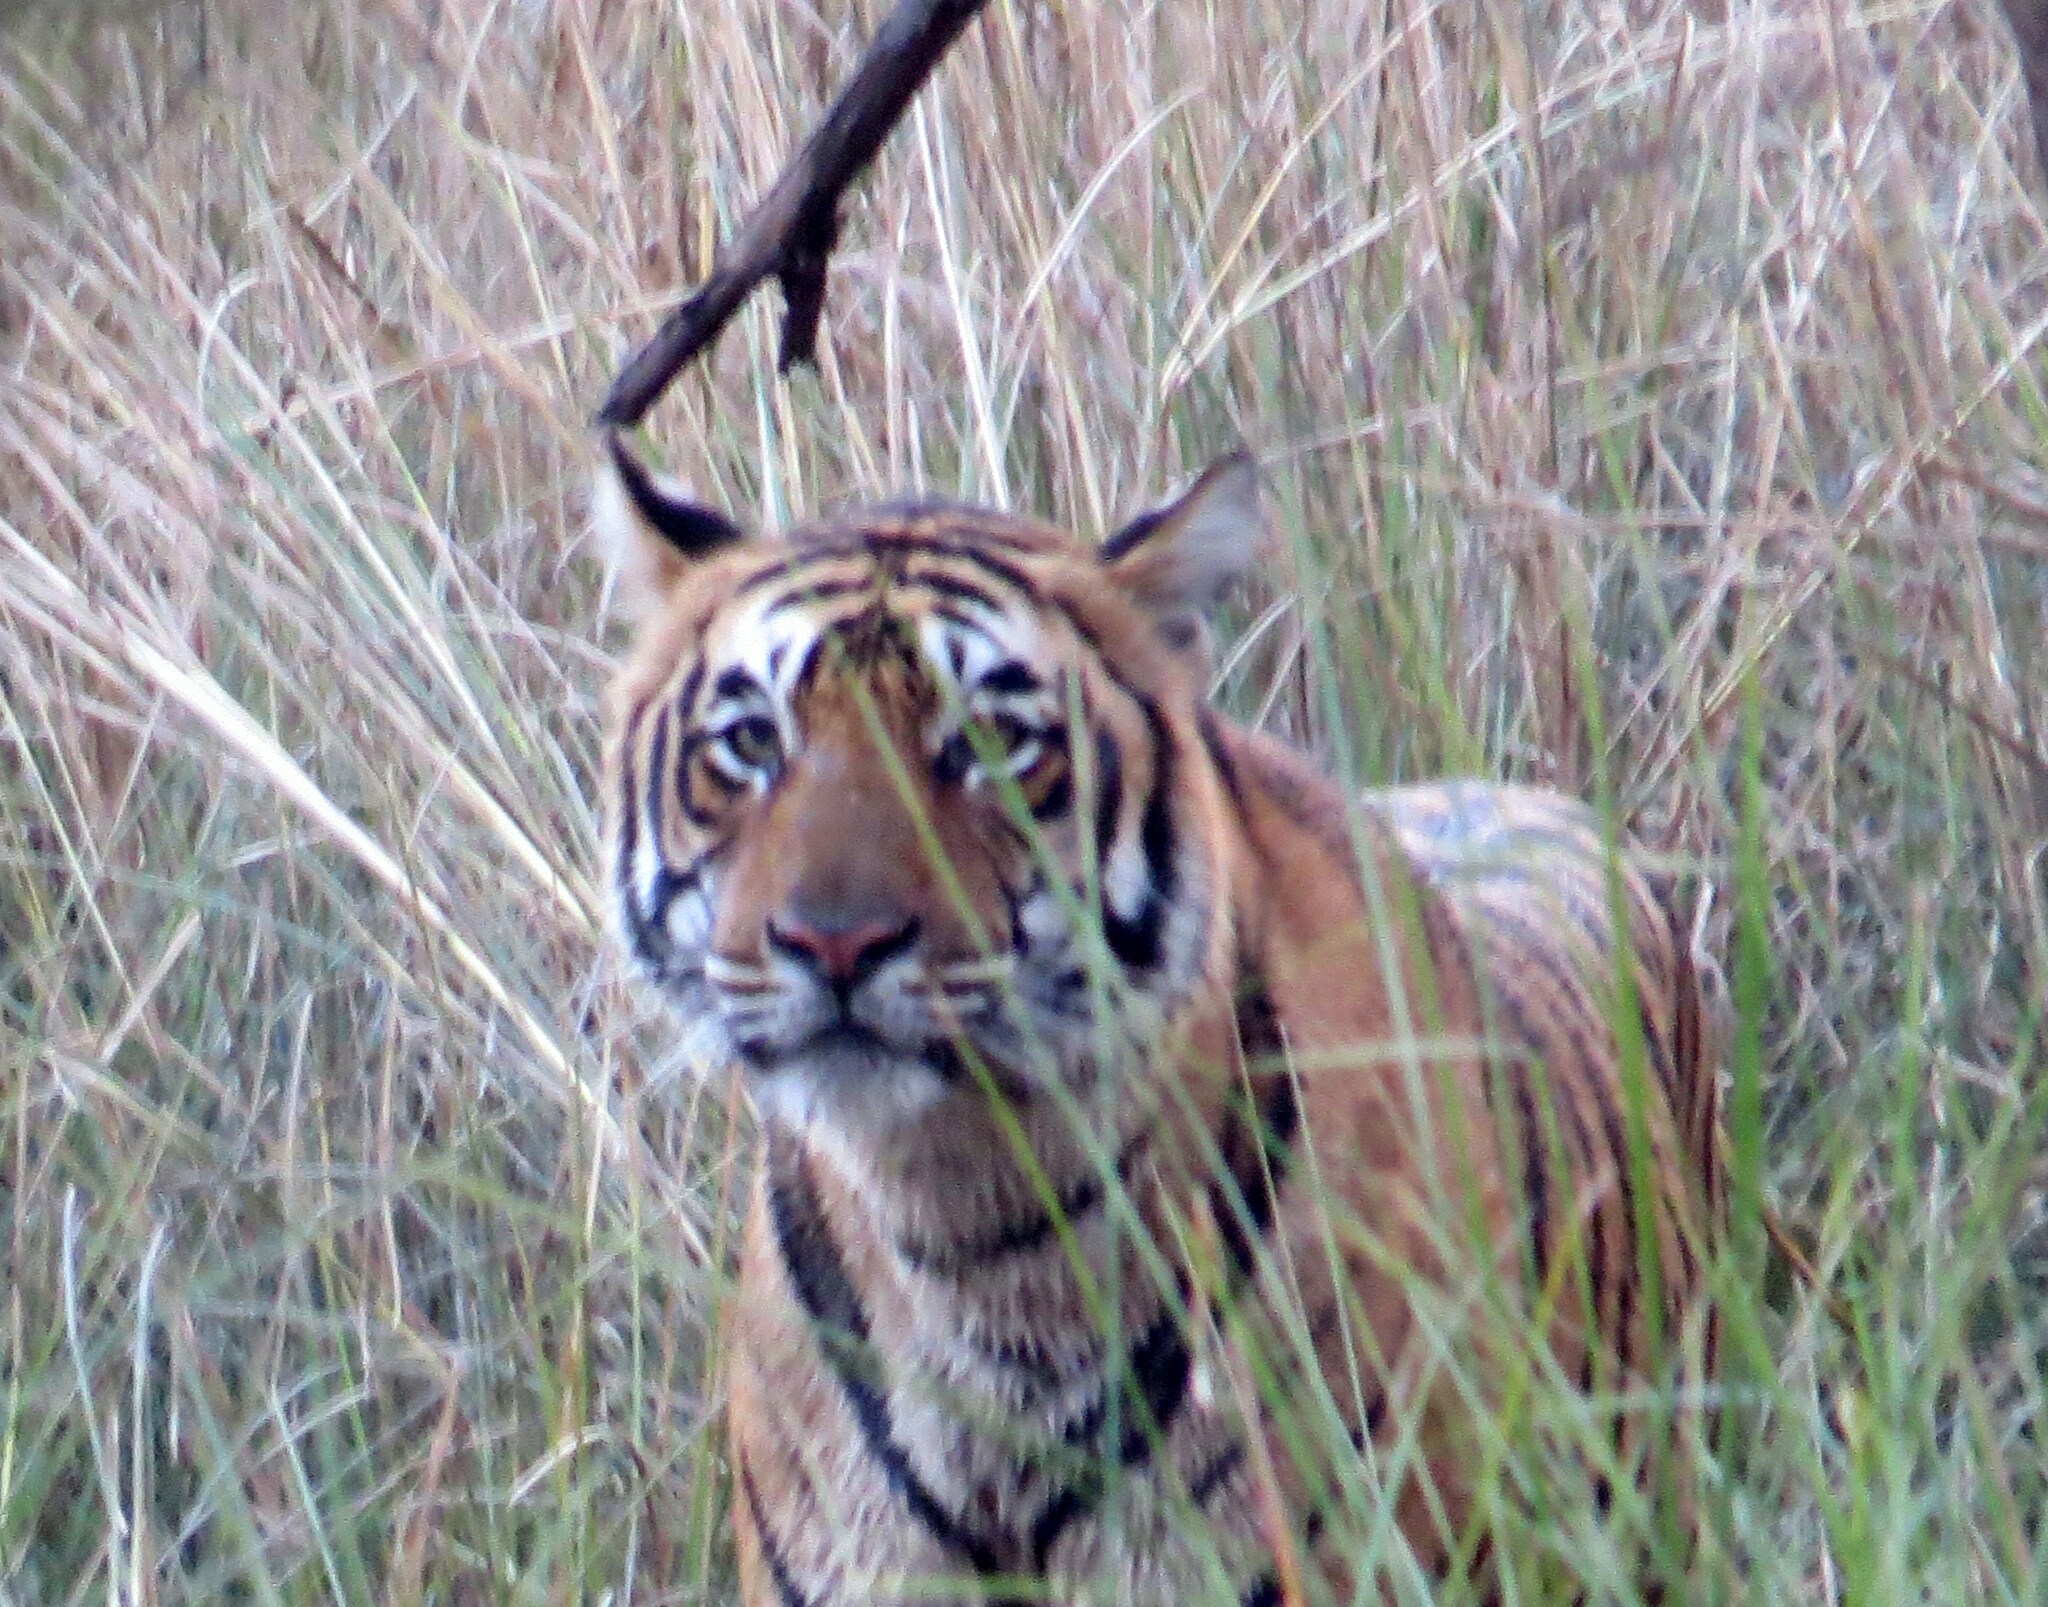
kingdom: Animalia
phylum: Chordata
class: Mammalia
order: Carnivora
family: Felidae
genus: Panthera
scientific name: Panthera tigris
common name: Tiger
